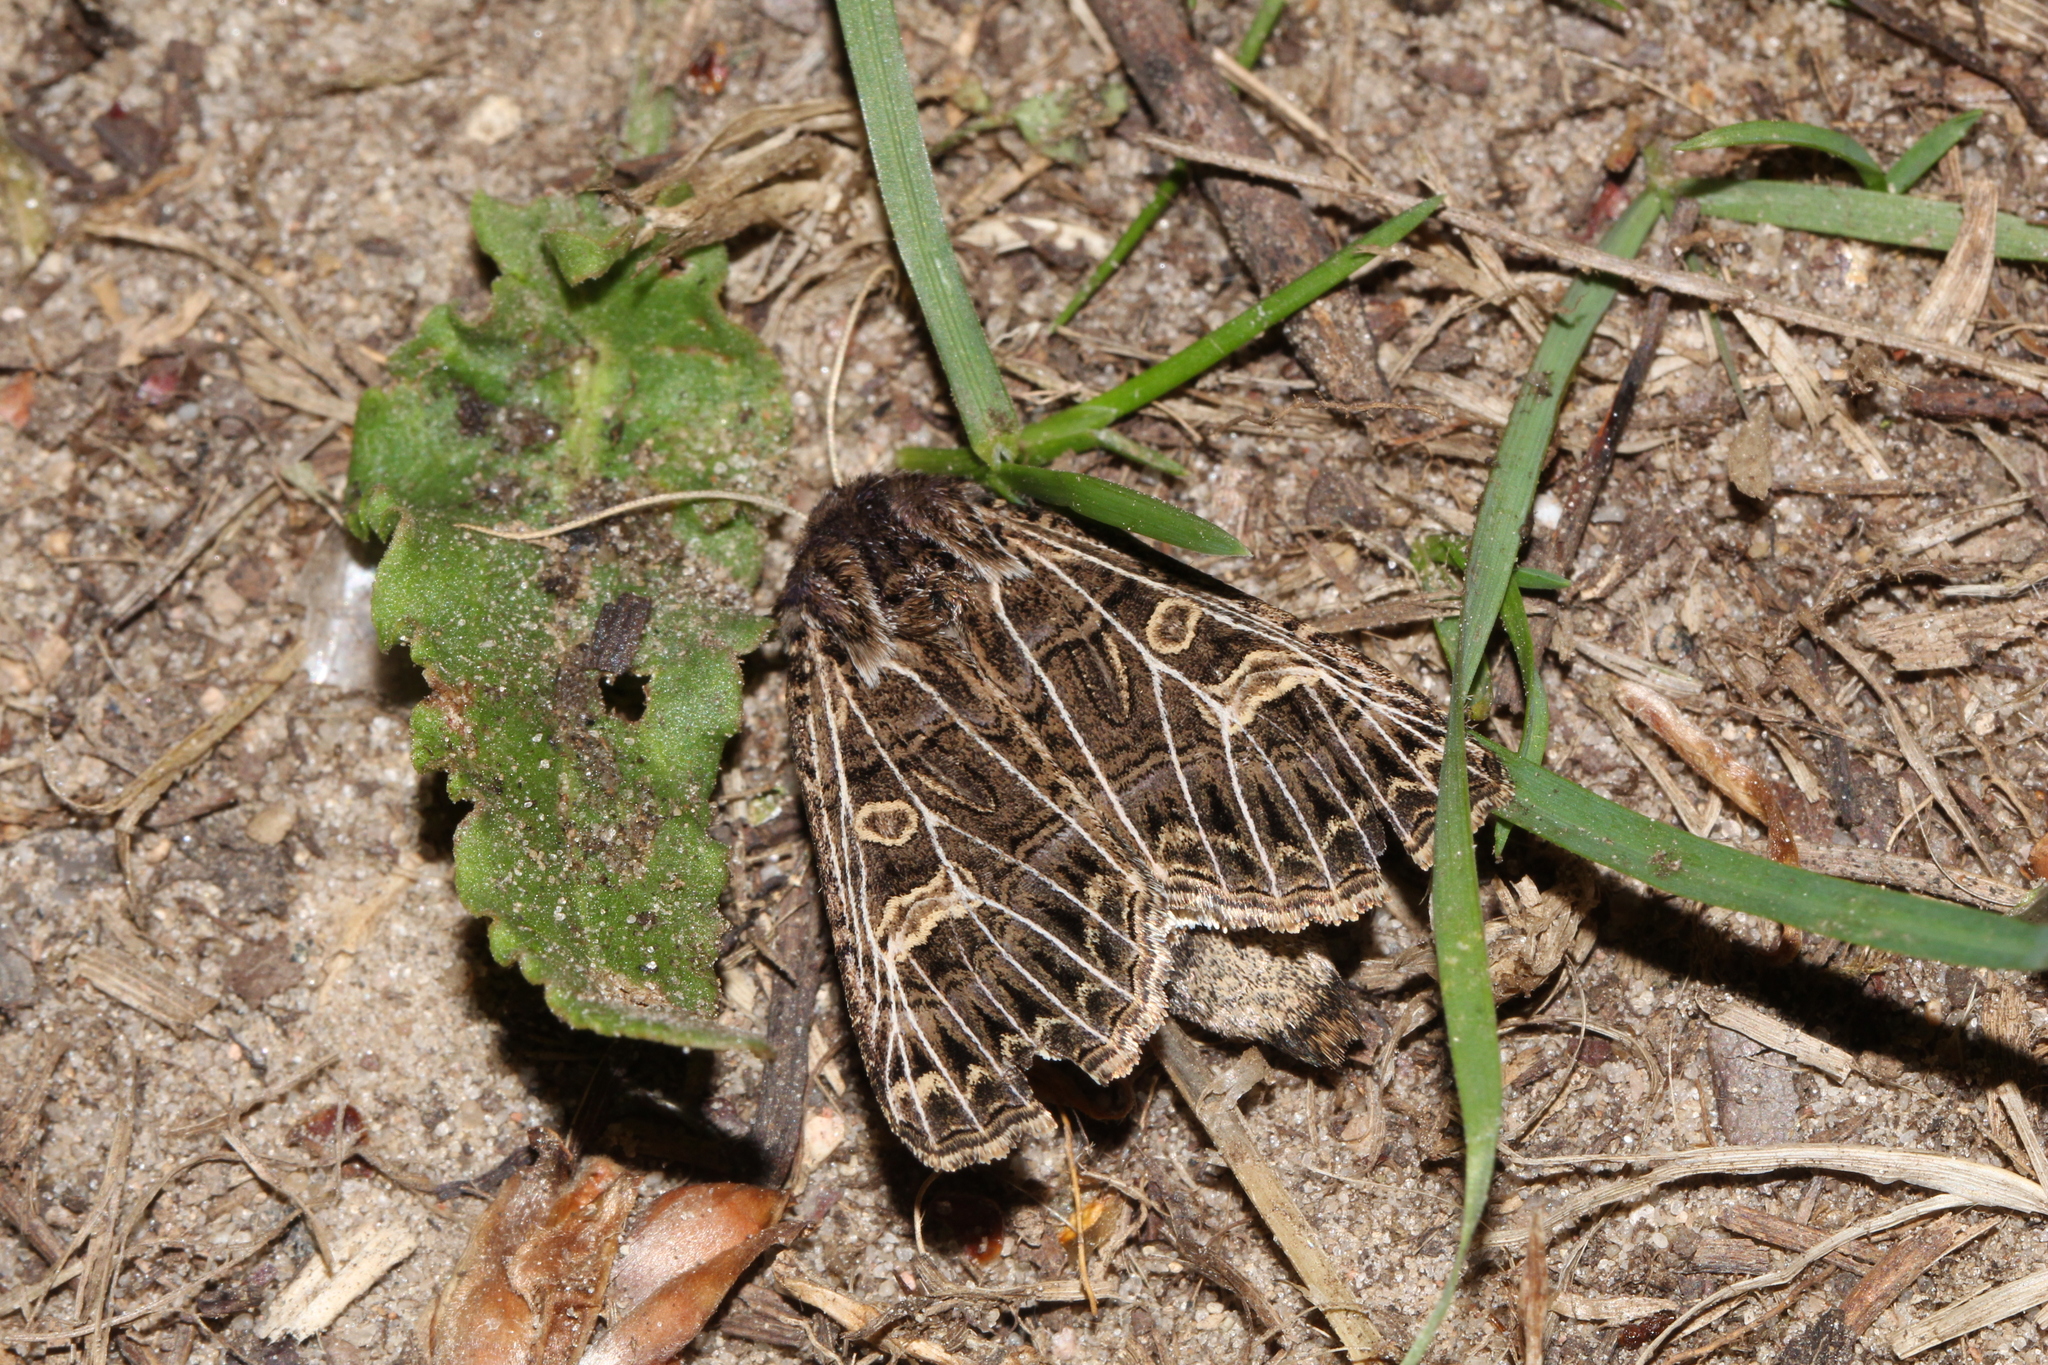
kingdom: Animalia
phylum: Arthropoda
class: Insecta
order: Lepidoptera
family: Noctuidae
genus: Tholera
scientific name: Tholera decimalis
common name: Feathered gothic
